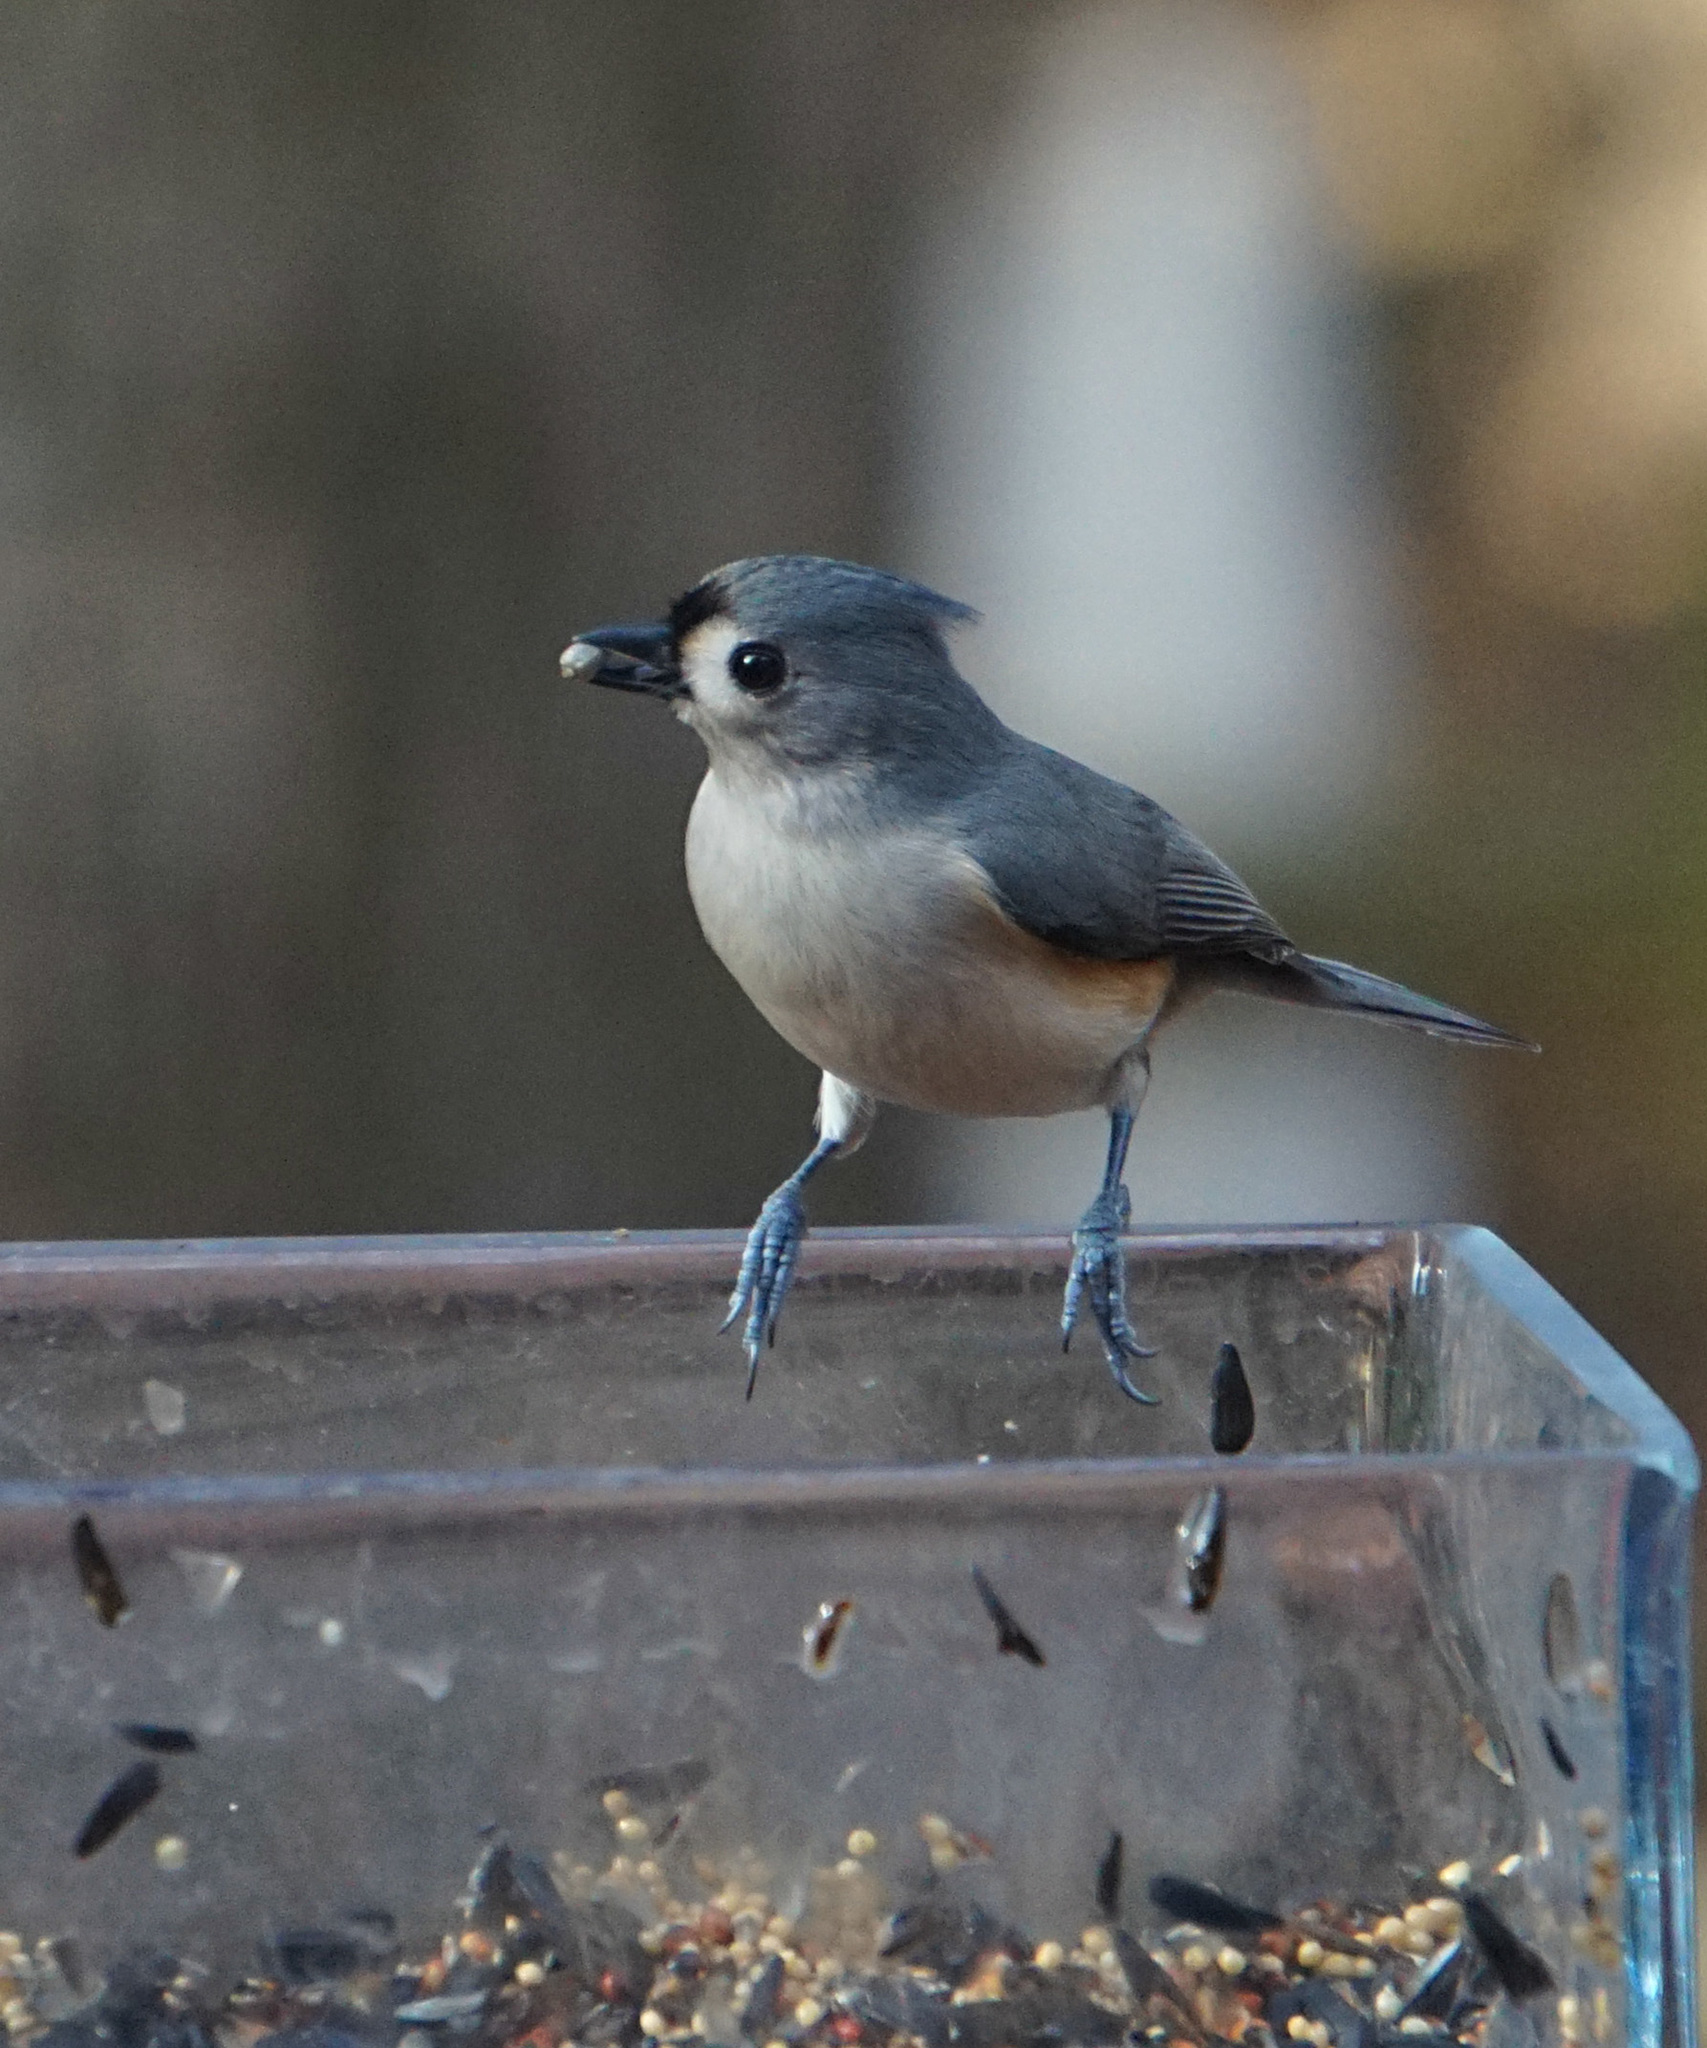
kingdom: Animalia
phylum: Chordata
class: Aves
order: Passeriformes
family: Paridae
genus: Baeolophus
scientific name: Baeolophus bicolor
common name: Tufted titmouse
